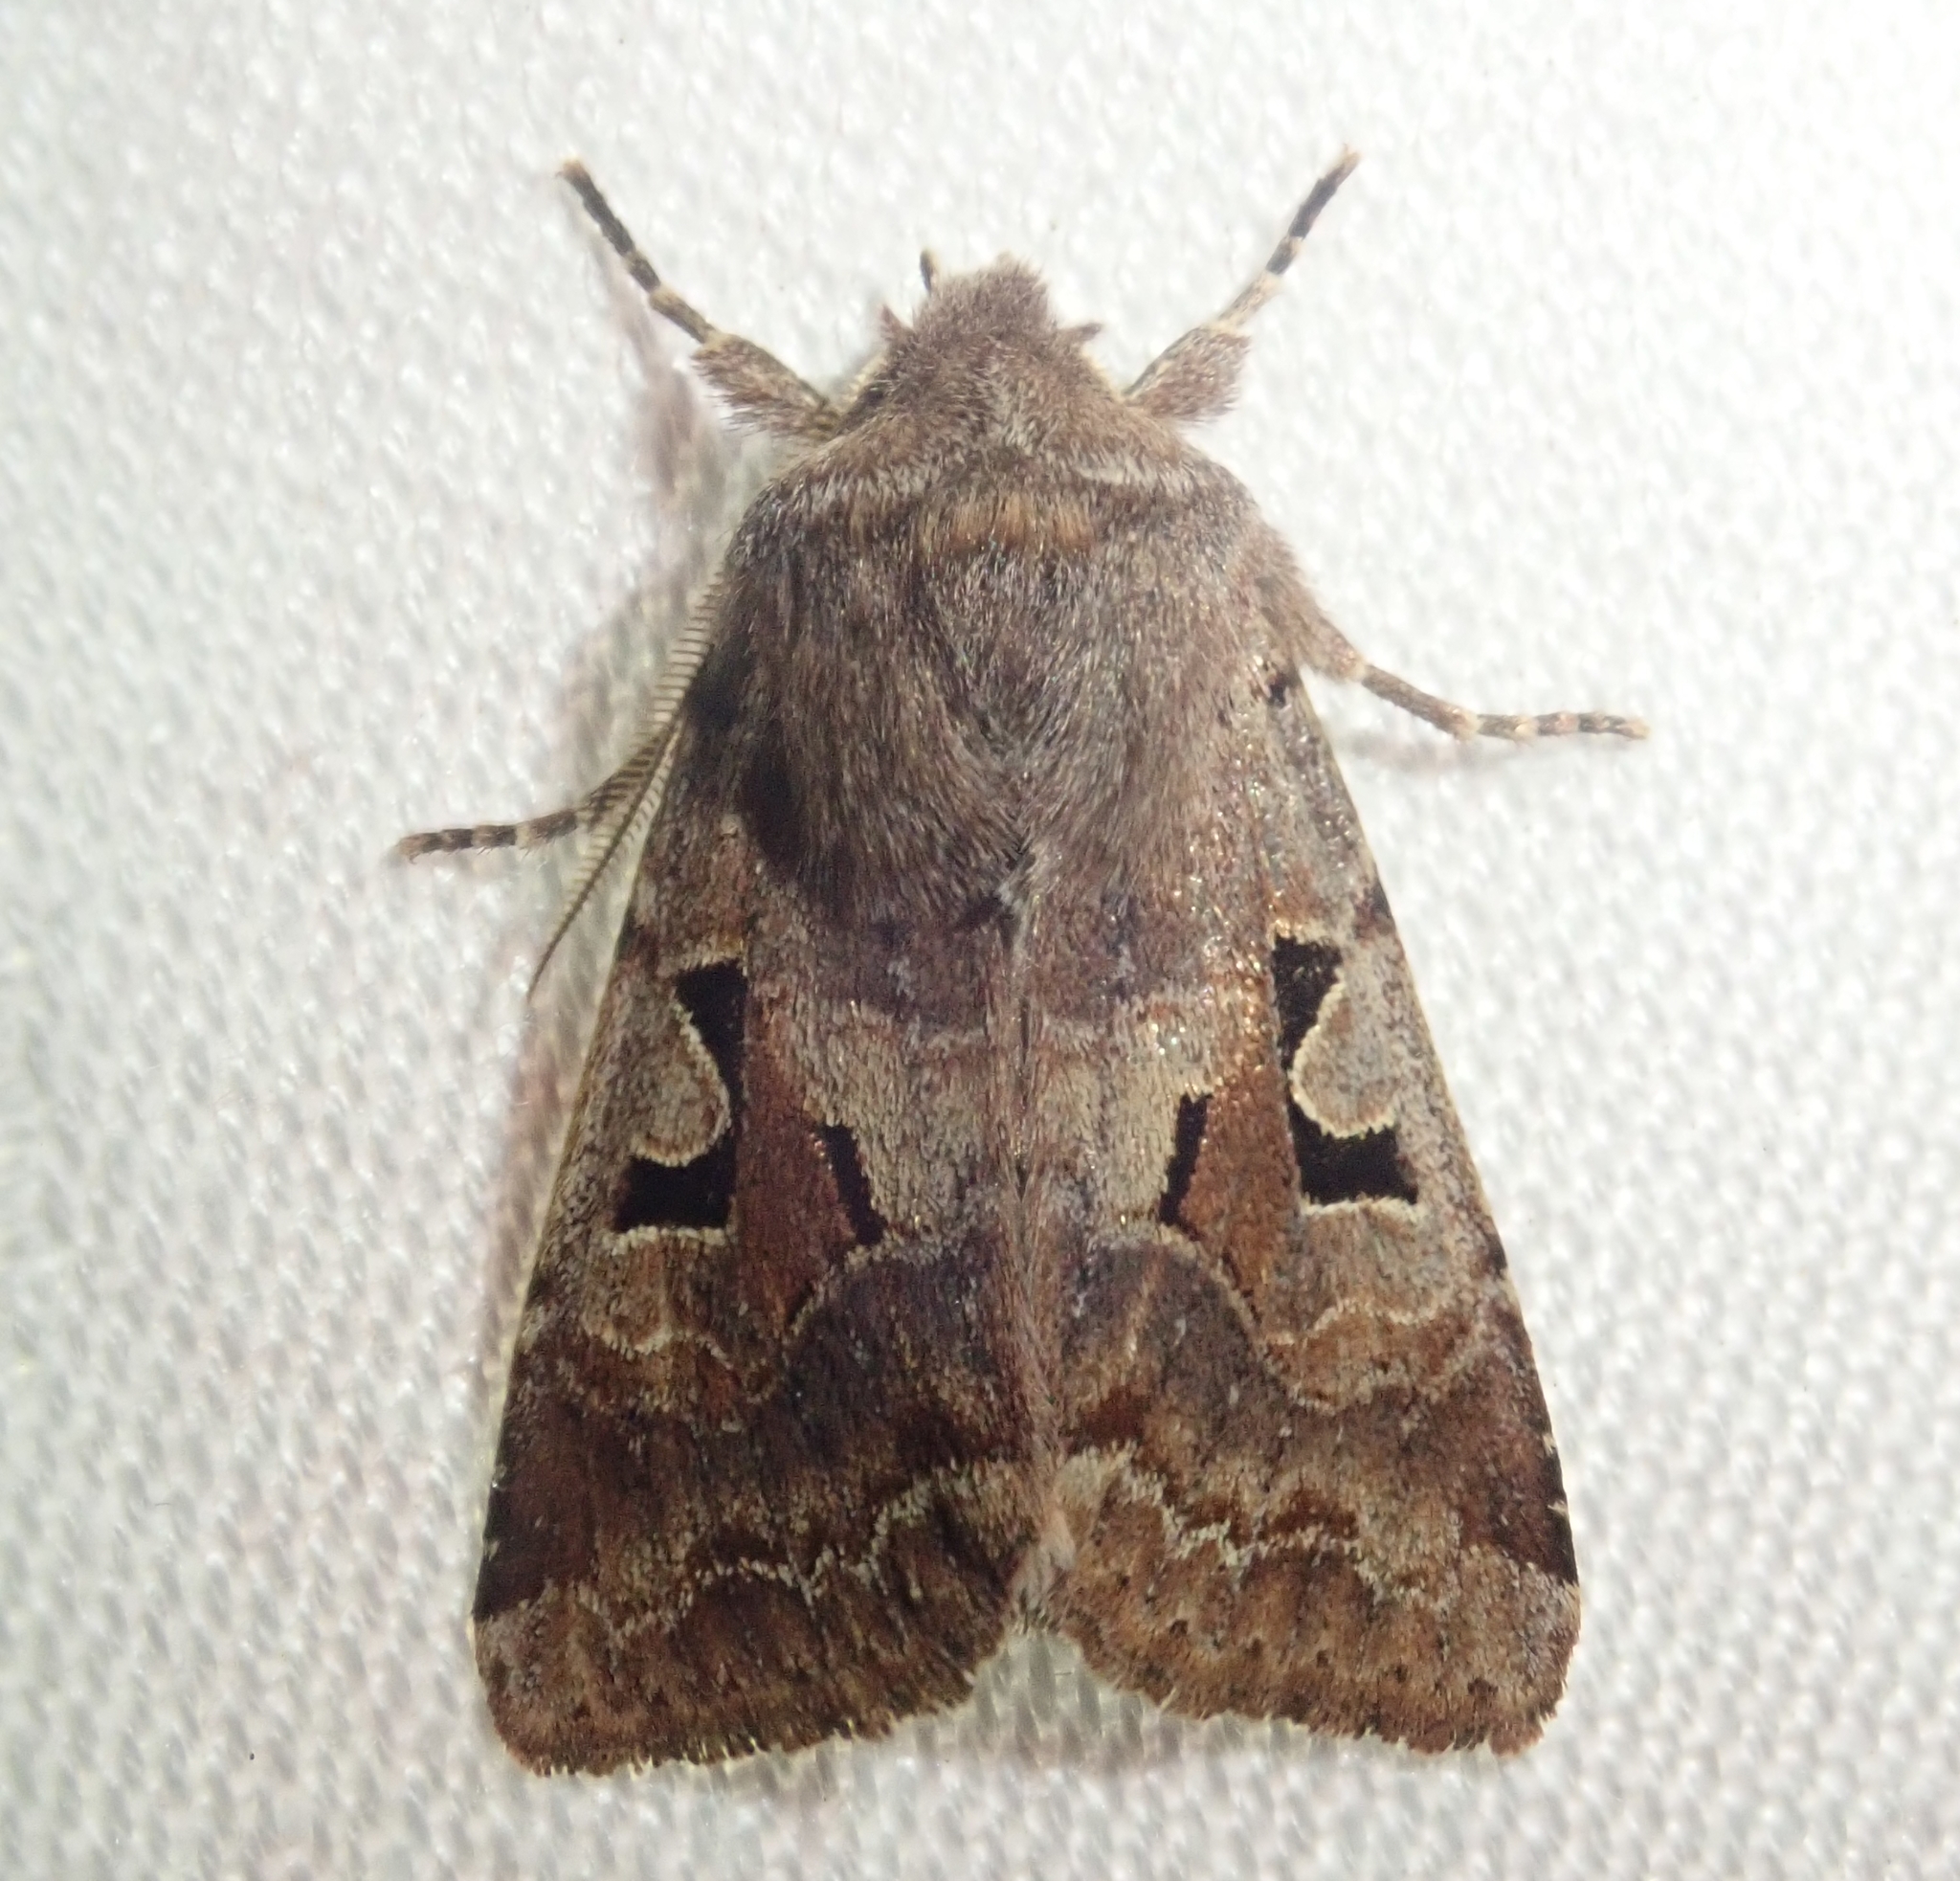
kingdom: Animalia
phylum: Arthropoda
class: Insecta
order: Lepidoptera
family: Noctuidae
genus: Orthosia
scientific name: Orthosia gothica
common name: Hebrew character
